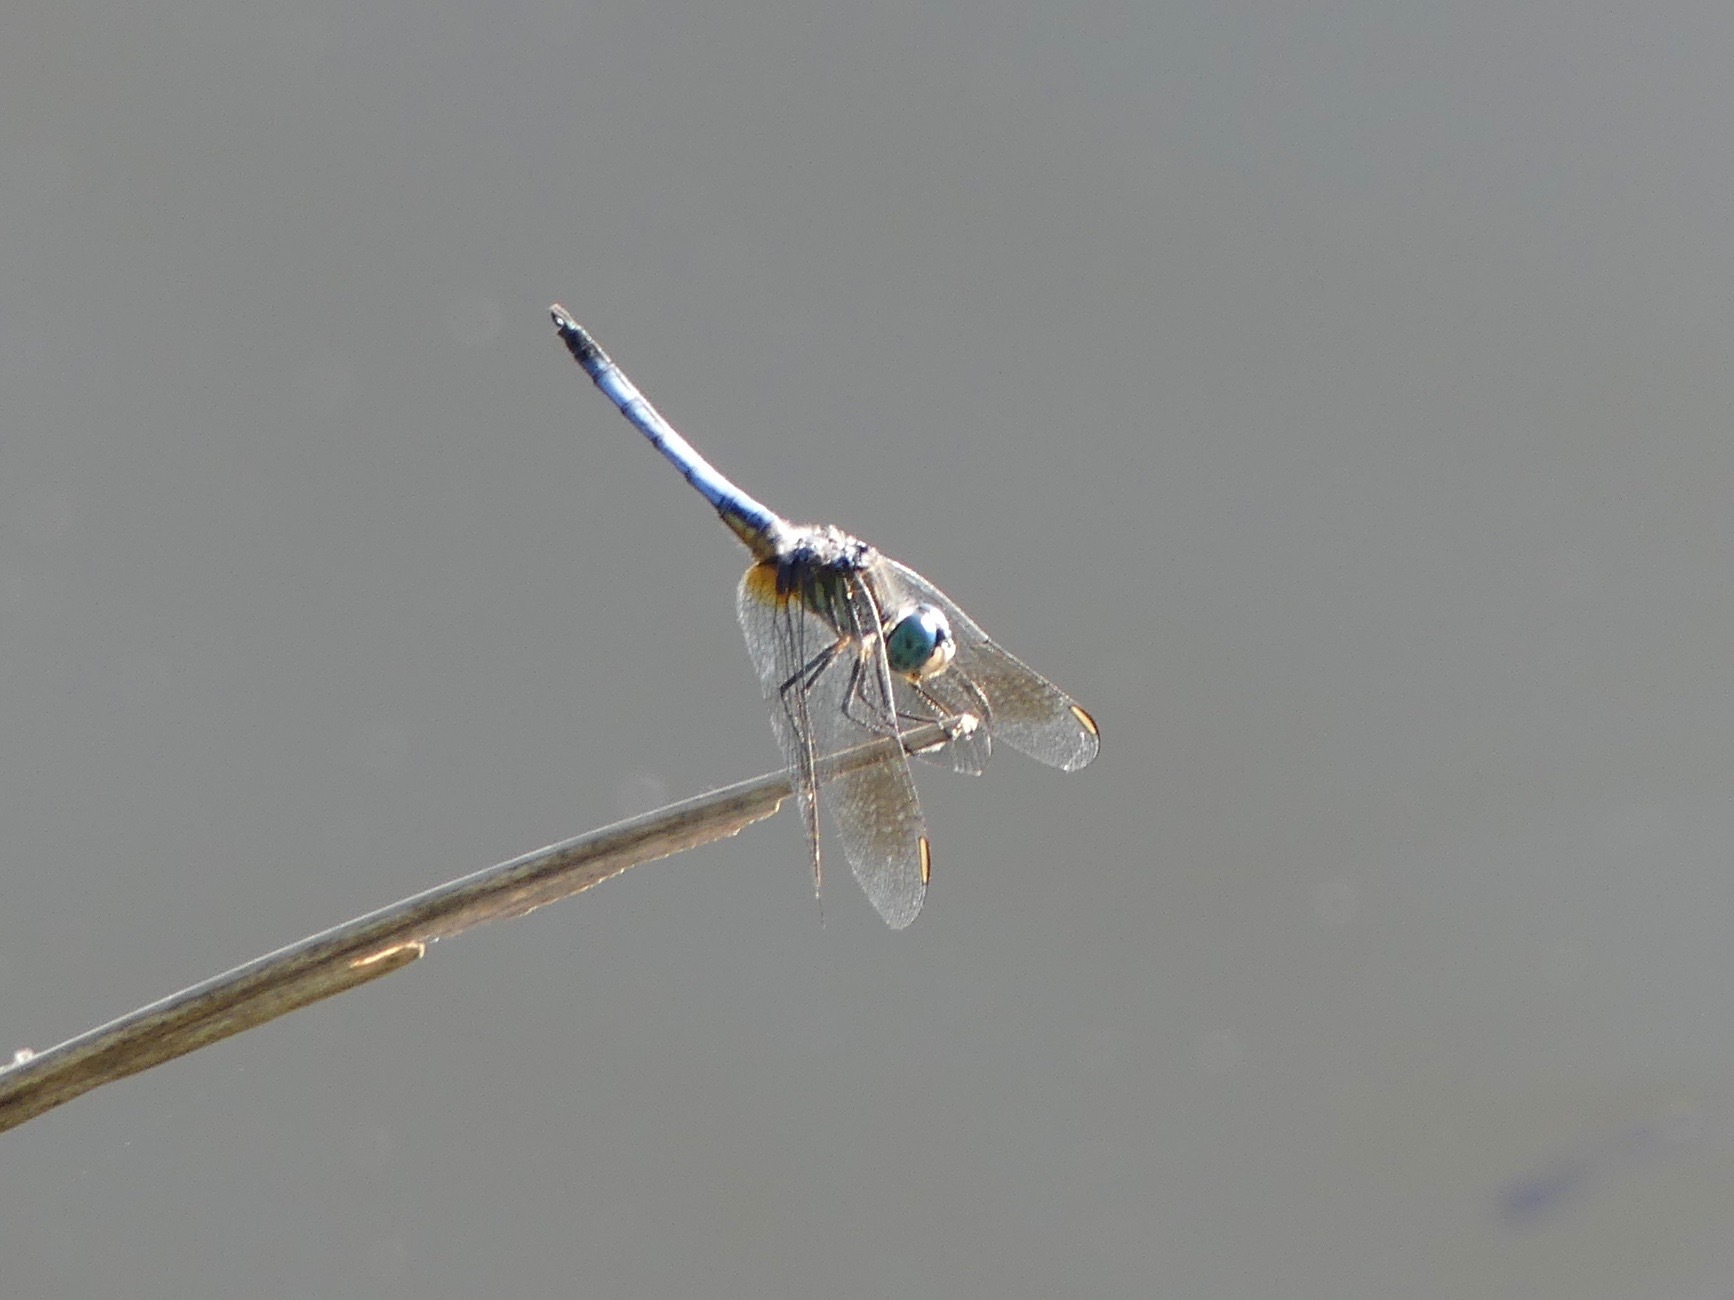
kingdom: Animalia
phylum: Arthropoda
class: Insecta
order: Odonata
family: Libellulidae
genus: Pachydiplax
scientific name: Pachydiplax longipennis
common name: Blue dasher
